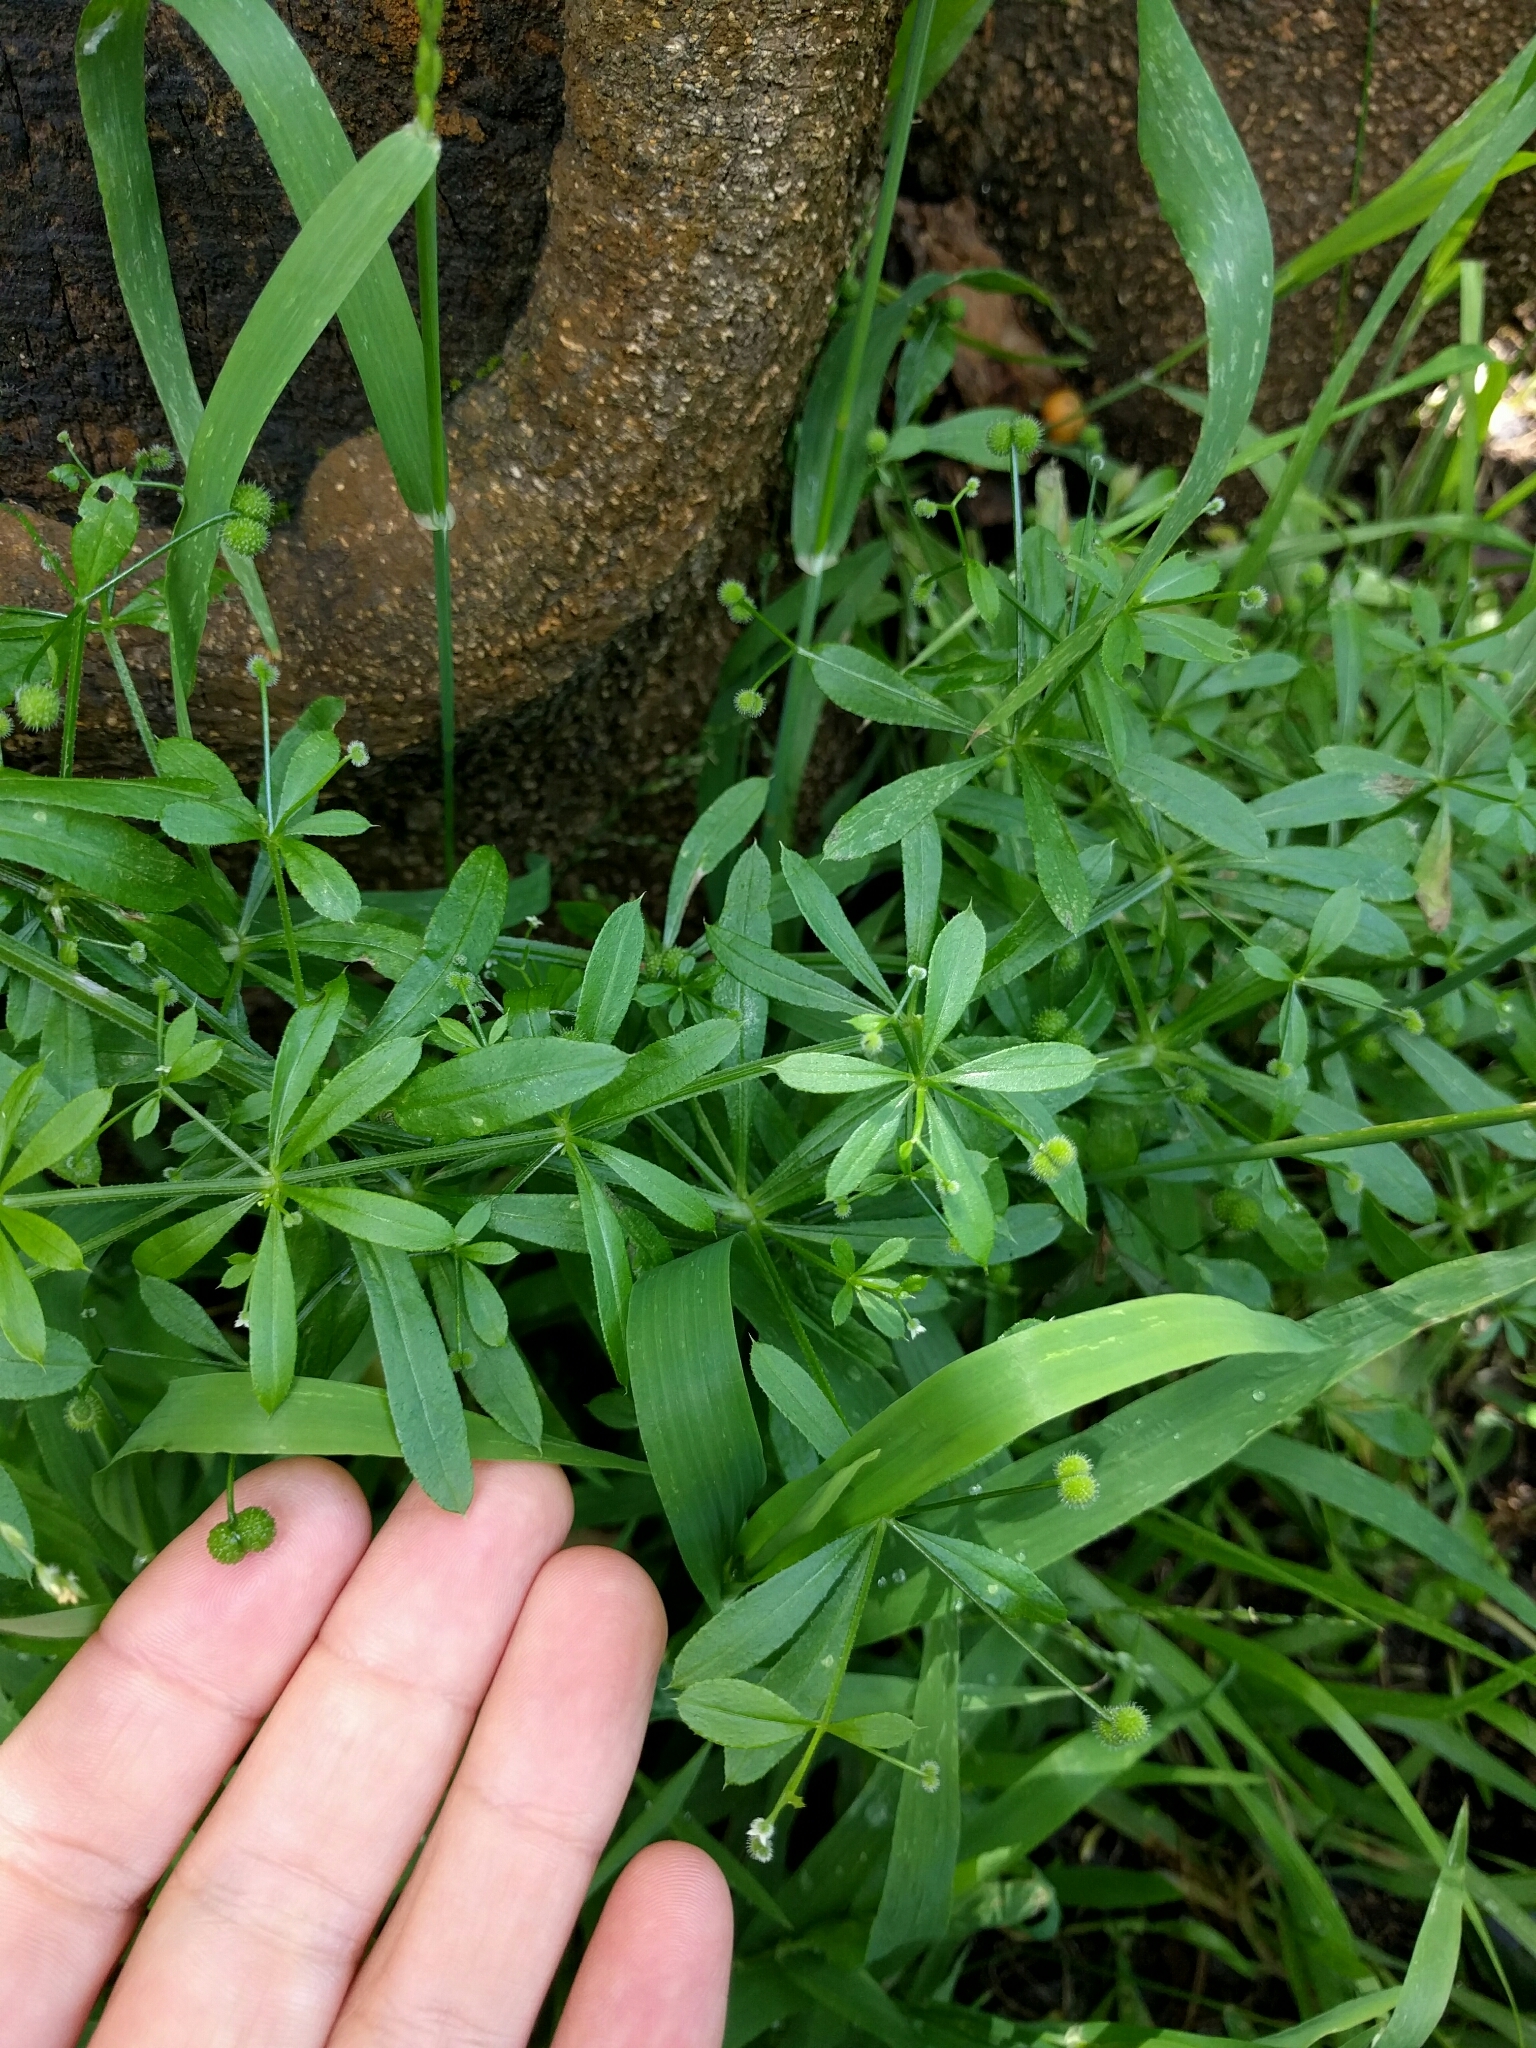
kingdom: Plantae
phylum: Tracheophyta
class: Magnoliopsida
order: Gentianales
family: Rubiaceae
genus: Galium
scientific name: Galium aparine
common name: Cleavers
